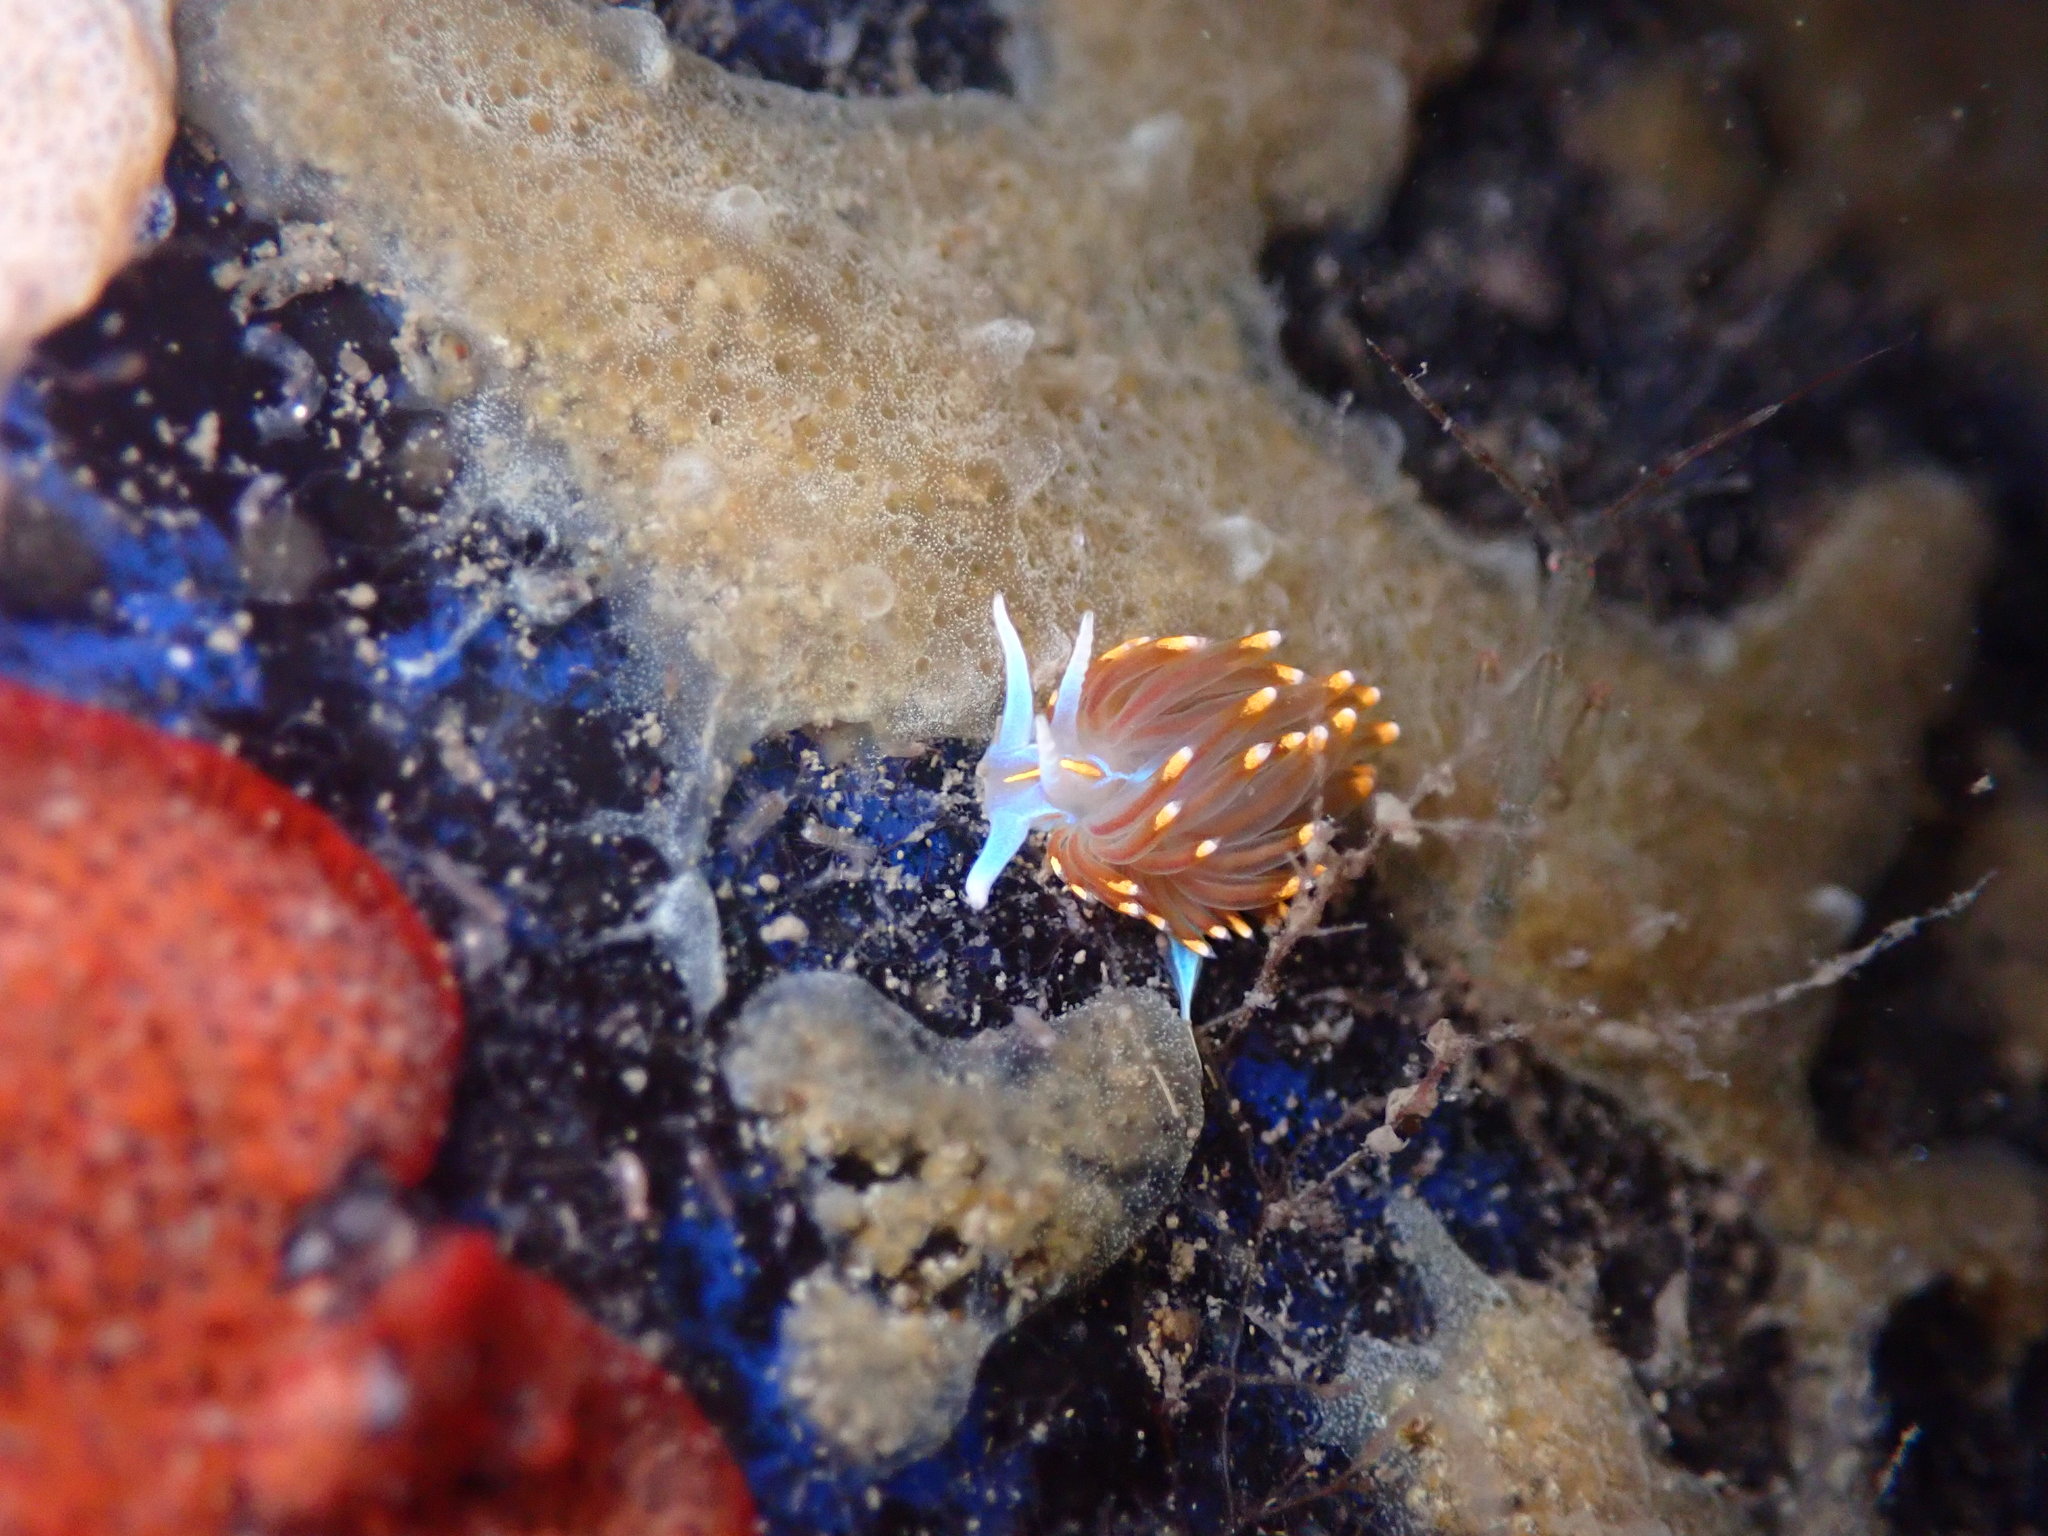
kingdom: Animalia
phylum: Mollusca
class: Gastropoda
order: Nudibranchia
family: Myrrhinidae
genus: Hermissenda
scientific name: Hermissenda opalescens
